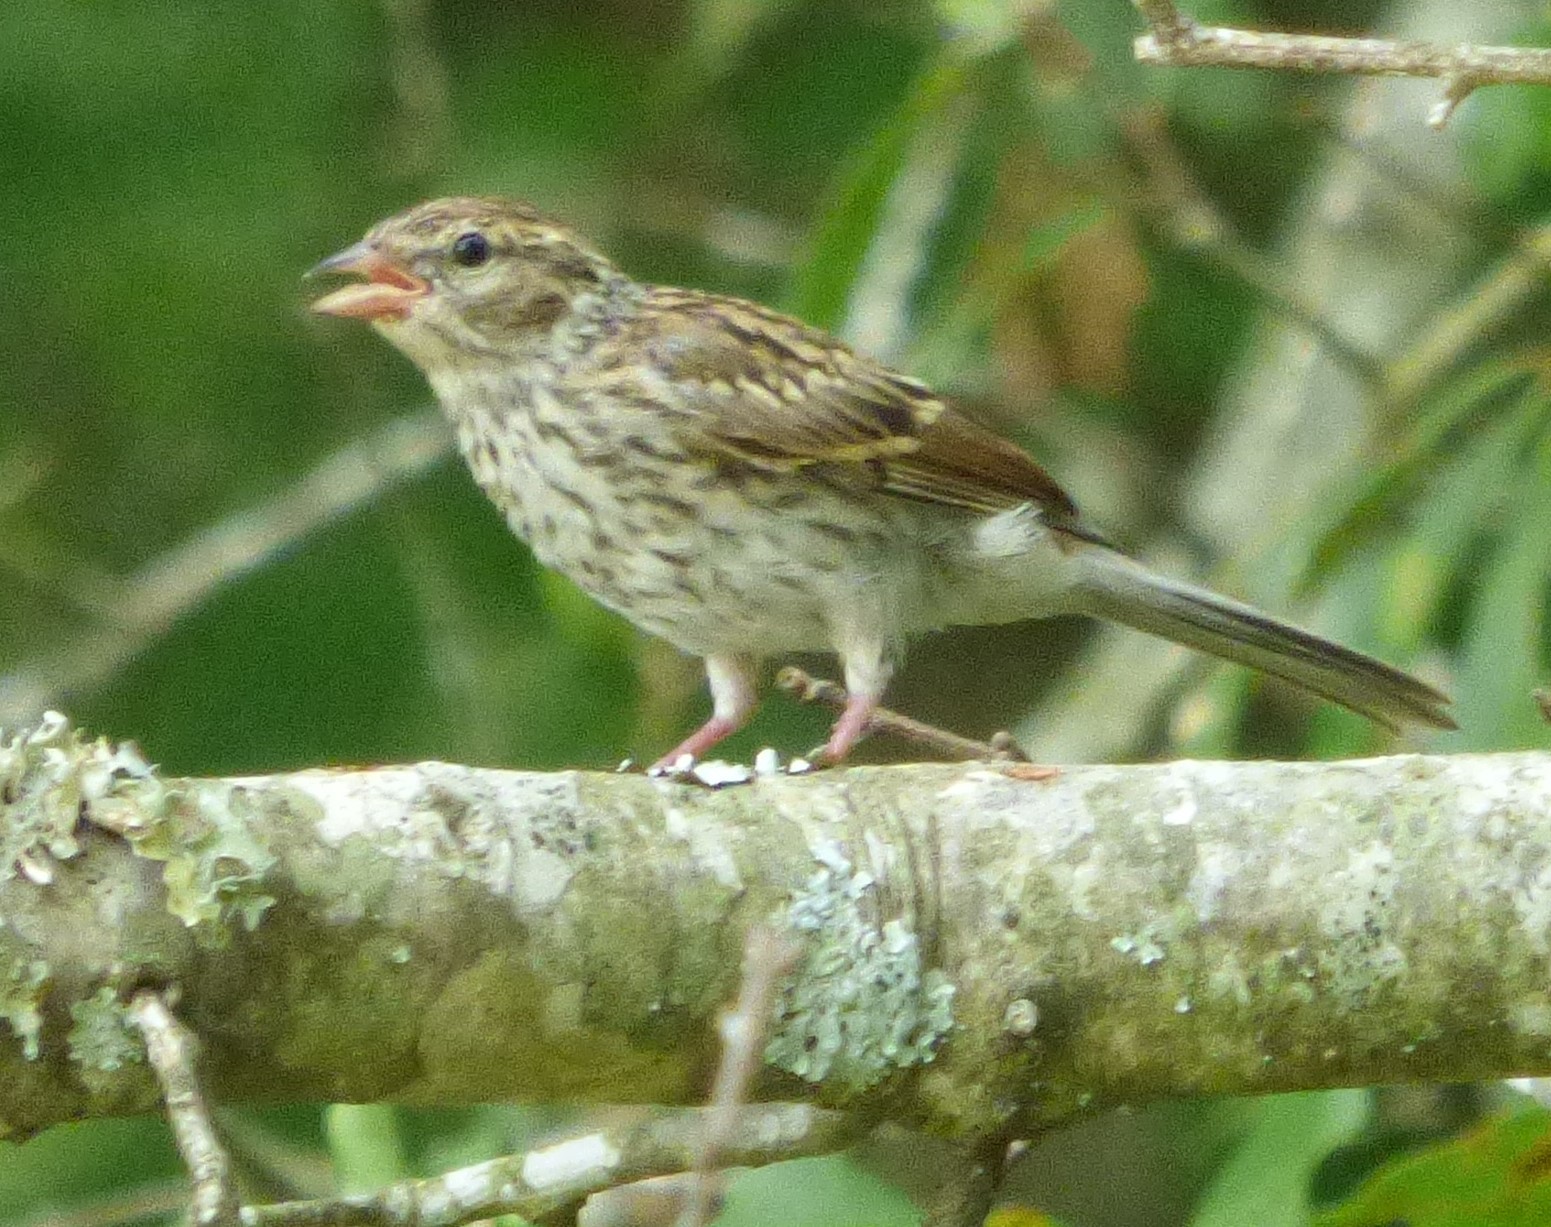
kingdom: Animalia
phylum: Chordata
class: Aves
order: Passeriformes
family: Passerellidae
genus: Spizella
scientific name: Spizella passerina
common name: Chipping sparrow
